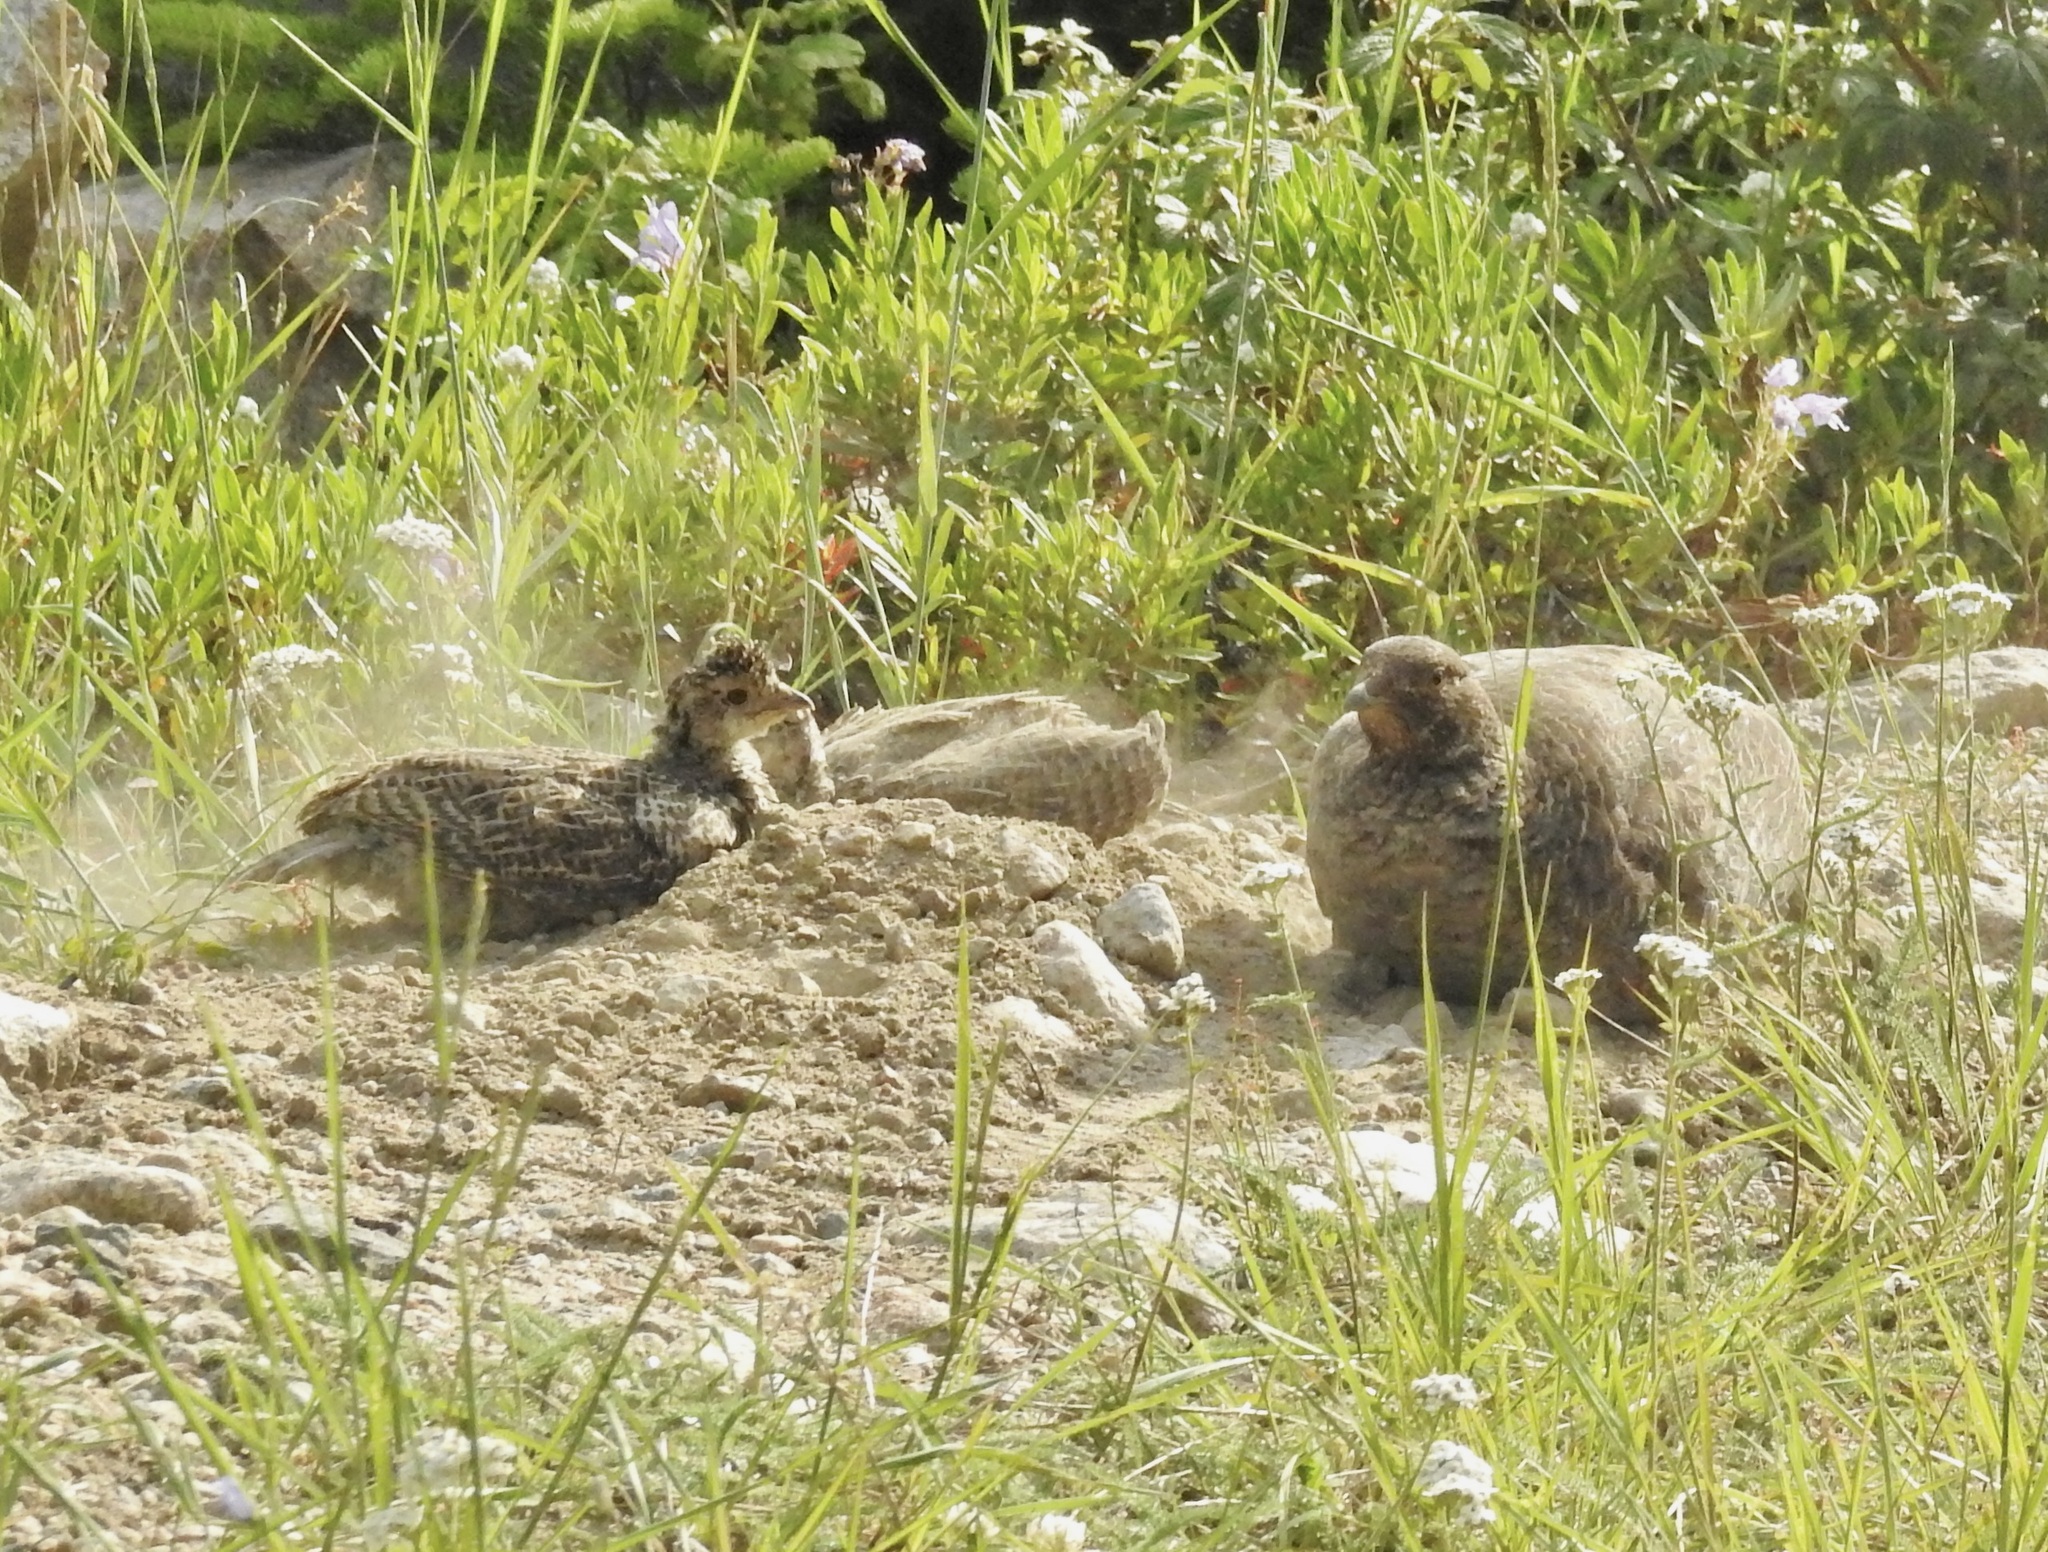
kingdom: Animalia
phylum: Chordata
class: Aves
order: Galliformes
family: Phasianidae
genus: Dendragapus
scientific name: Dendragapus obscurus
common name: Dusky grouse
